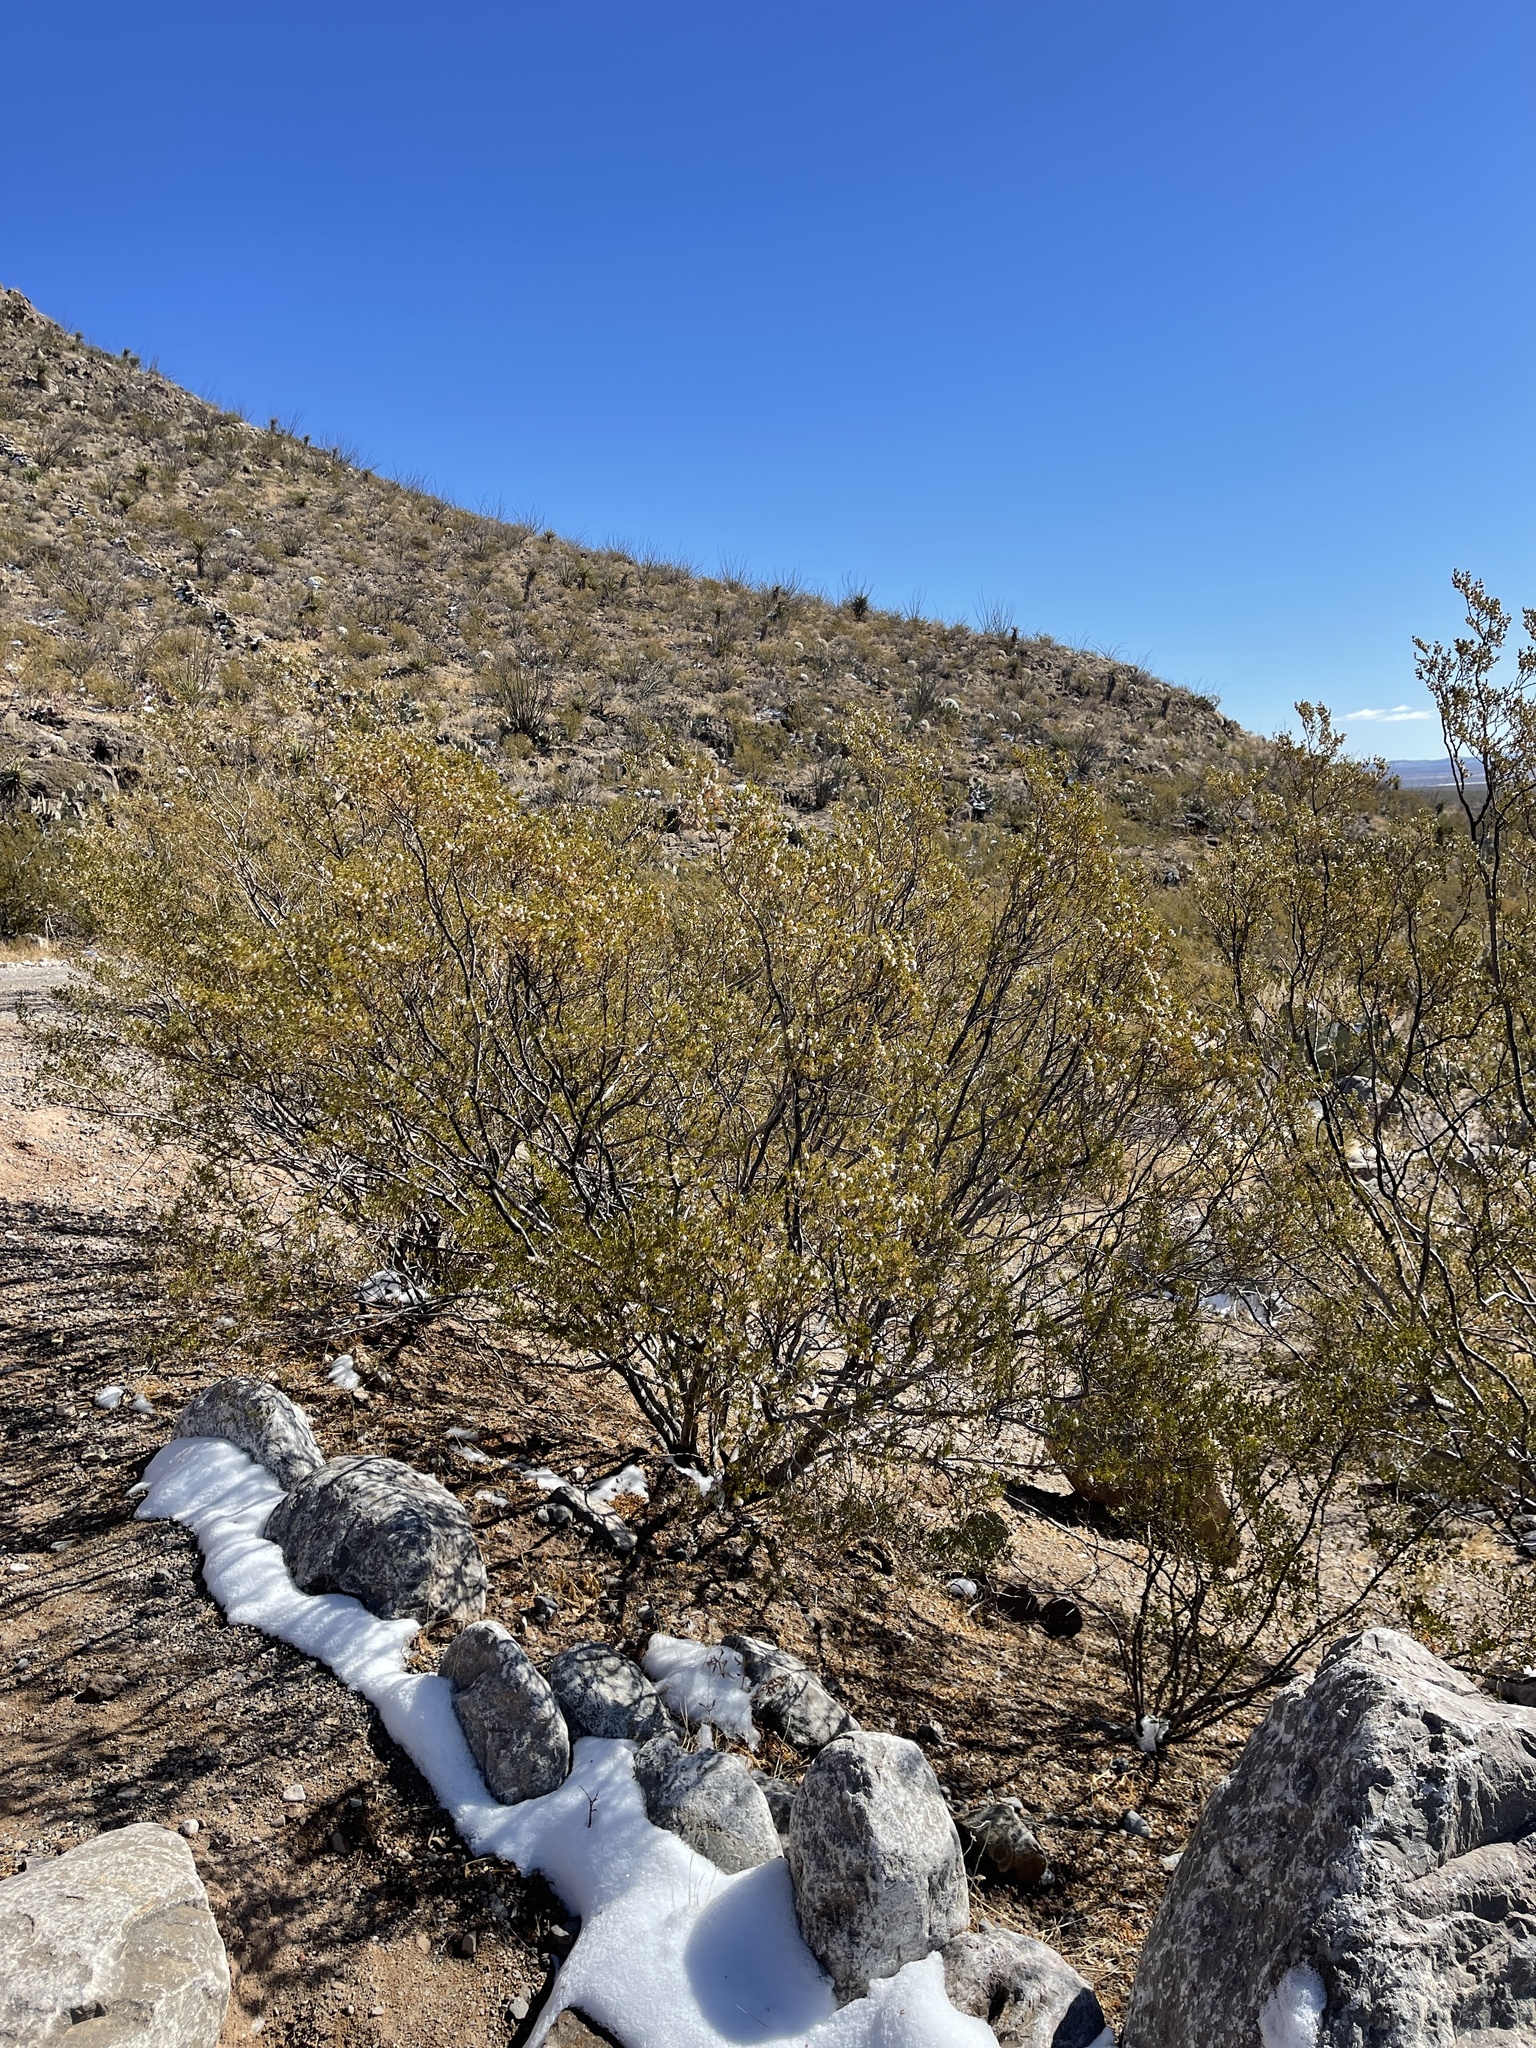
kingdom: Plantae
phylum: Tracheophyta
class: Magnoliopsida
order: Zygophyllales
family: Zygophyllaceae
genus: Larrea
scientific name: Larrea tridentata
